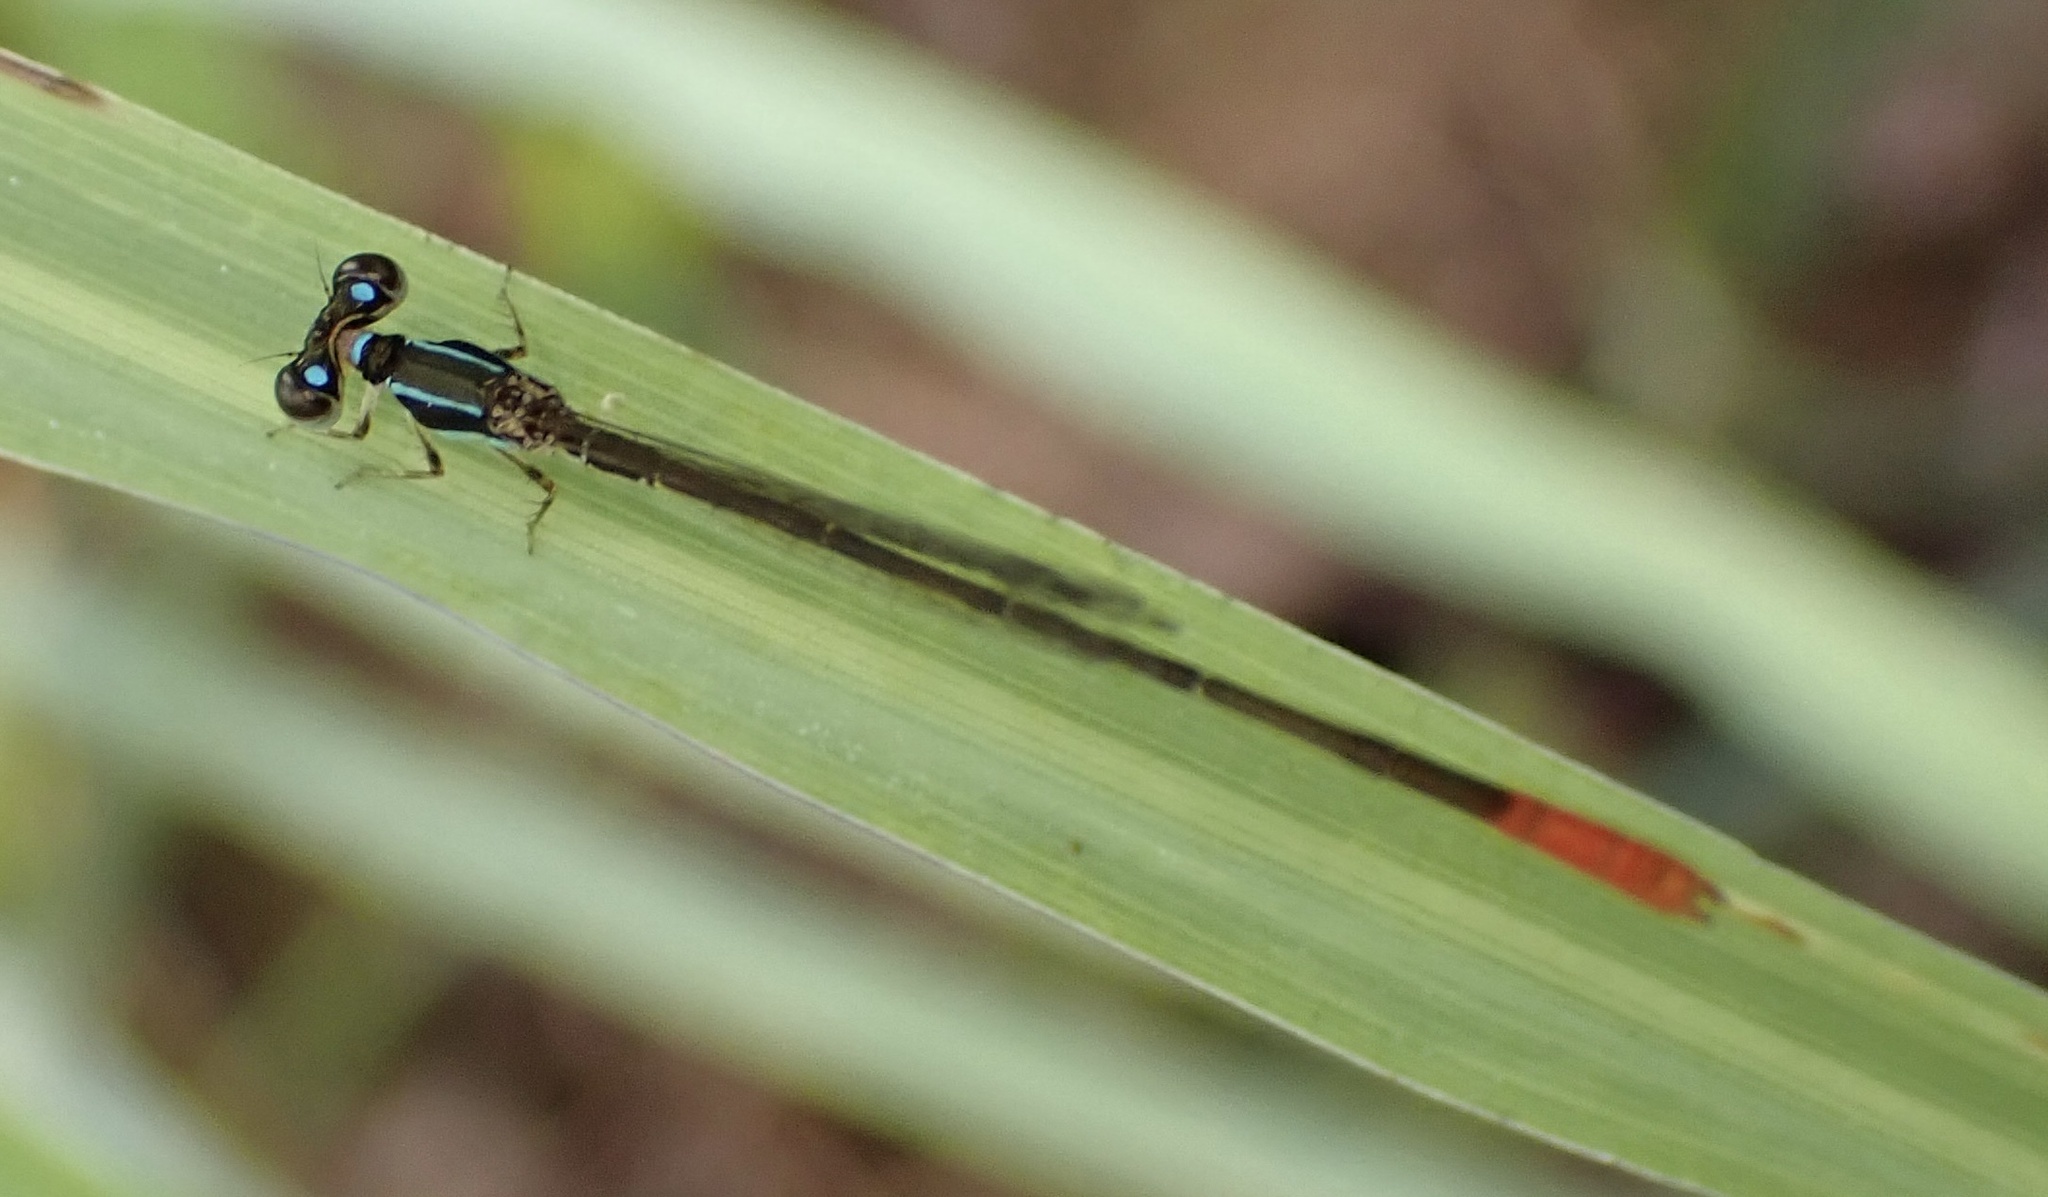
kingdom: Animalia
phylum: Arthropoda
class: Insecta
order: Odonata
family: Coenagrionidae
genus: Agriocnemis
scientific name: Agriocnemis femina
